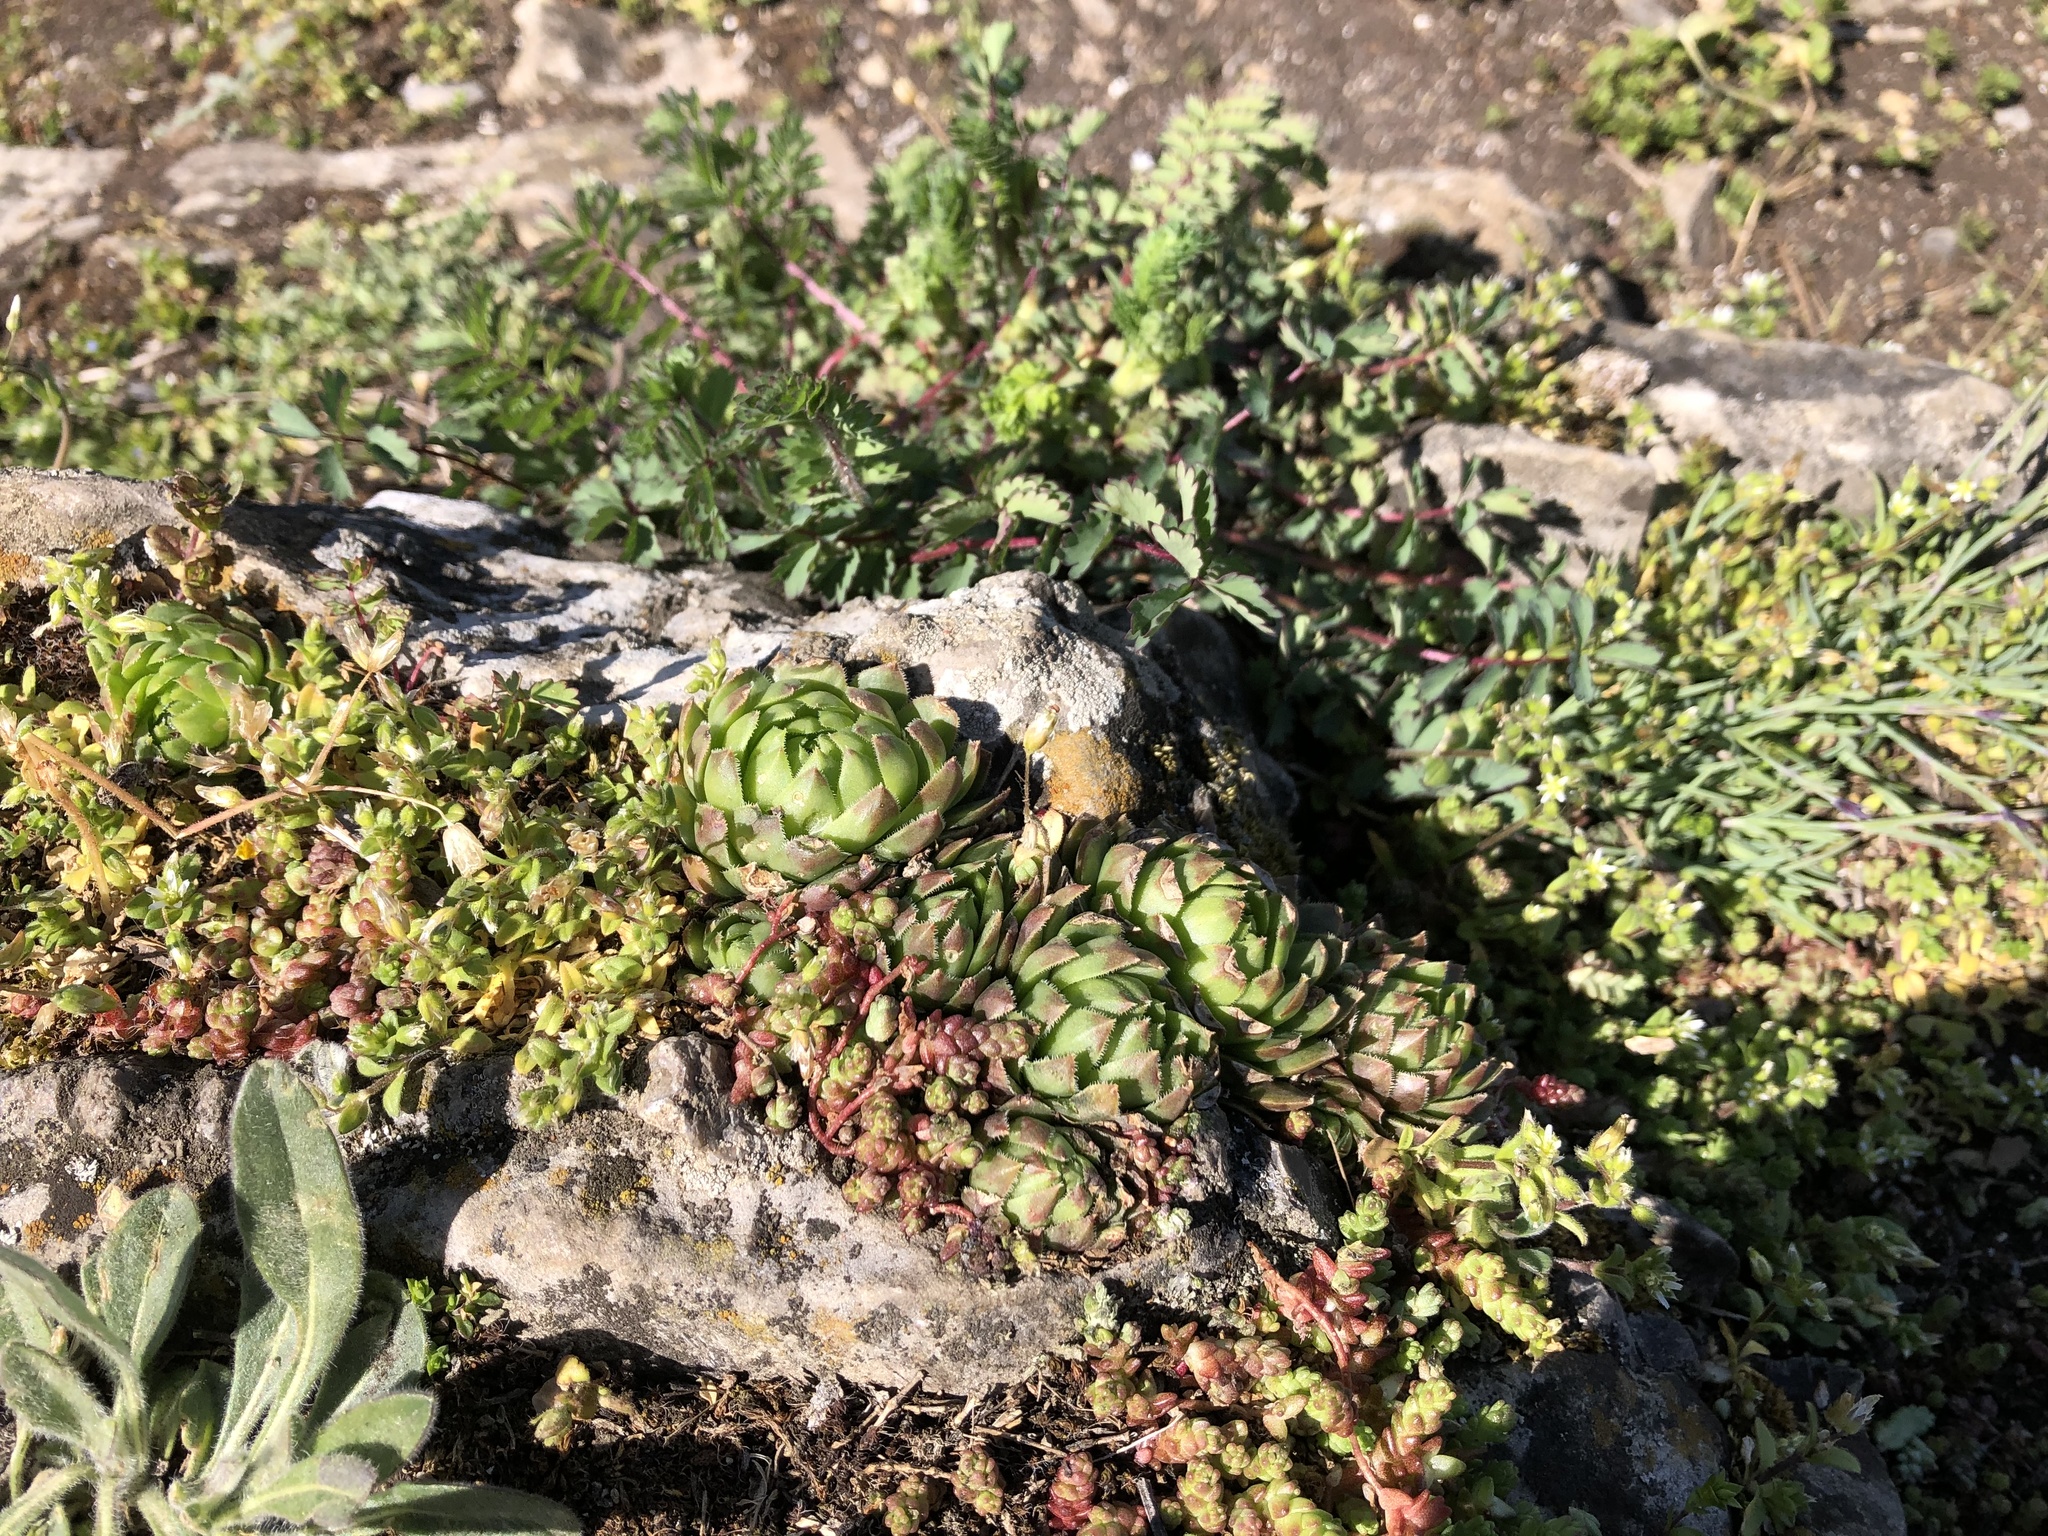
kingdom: Plantae
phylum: Tracheophyta
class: Magnoliopsida
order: Saxifragales
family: Crassulaceae
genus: Sempervivum
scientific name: Sempervivum globiferum
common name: Rolling hen-and-chicks
